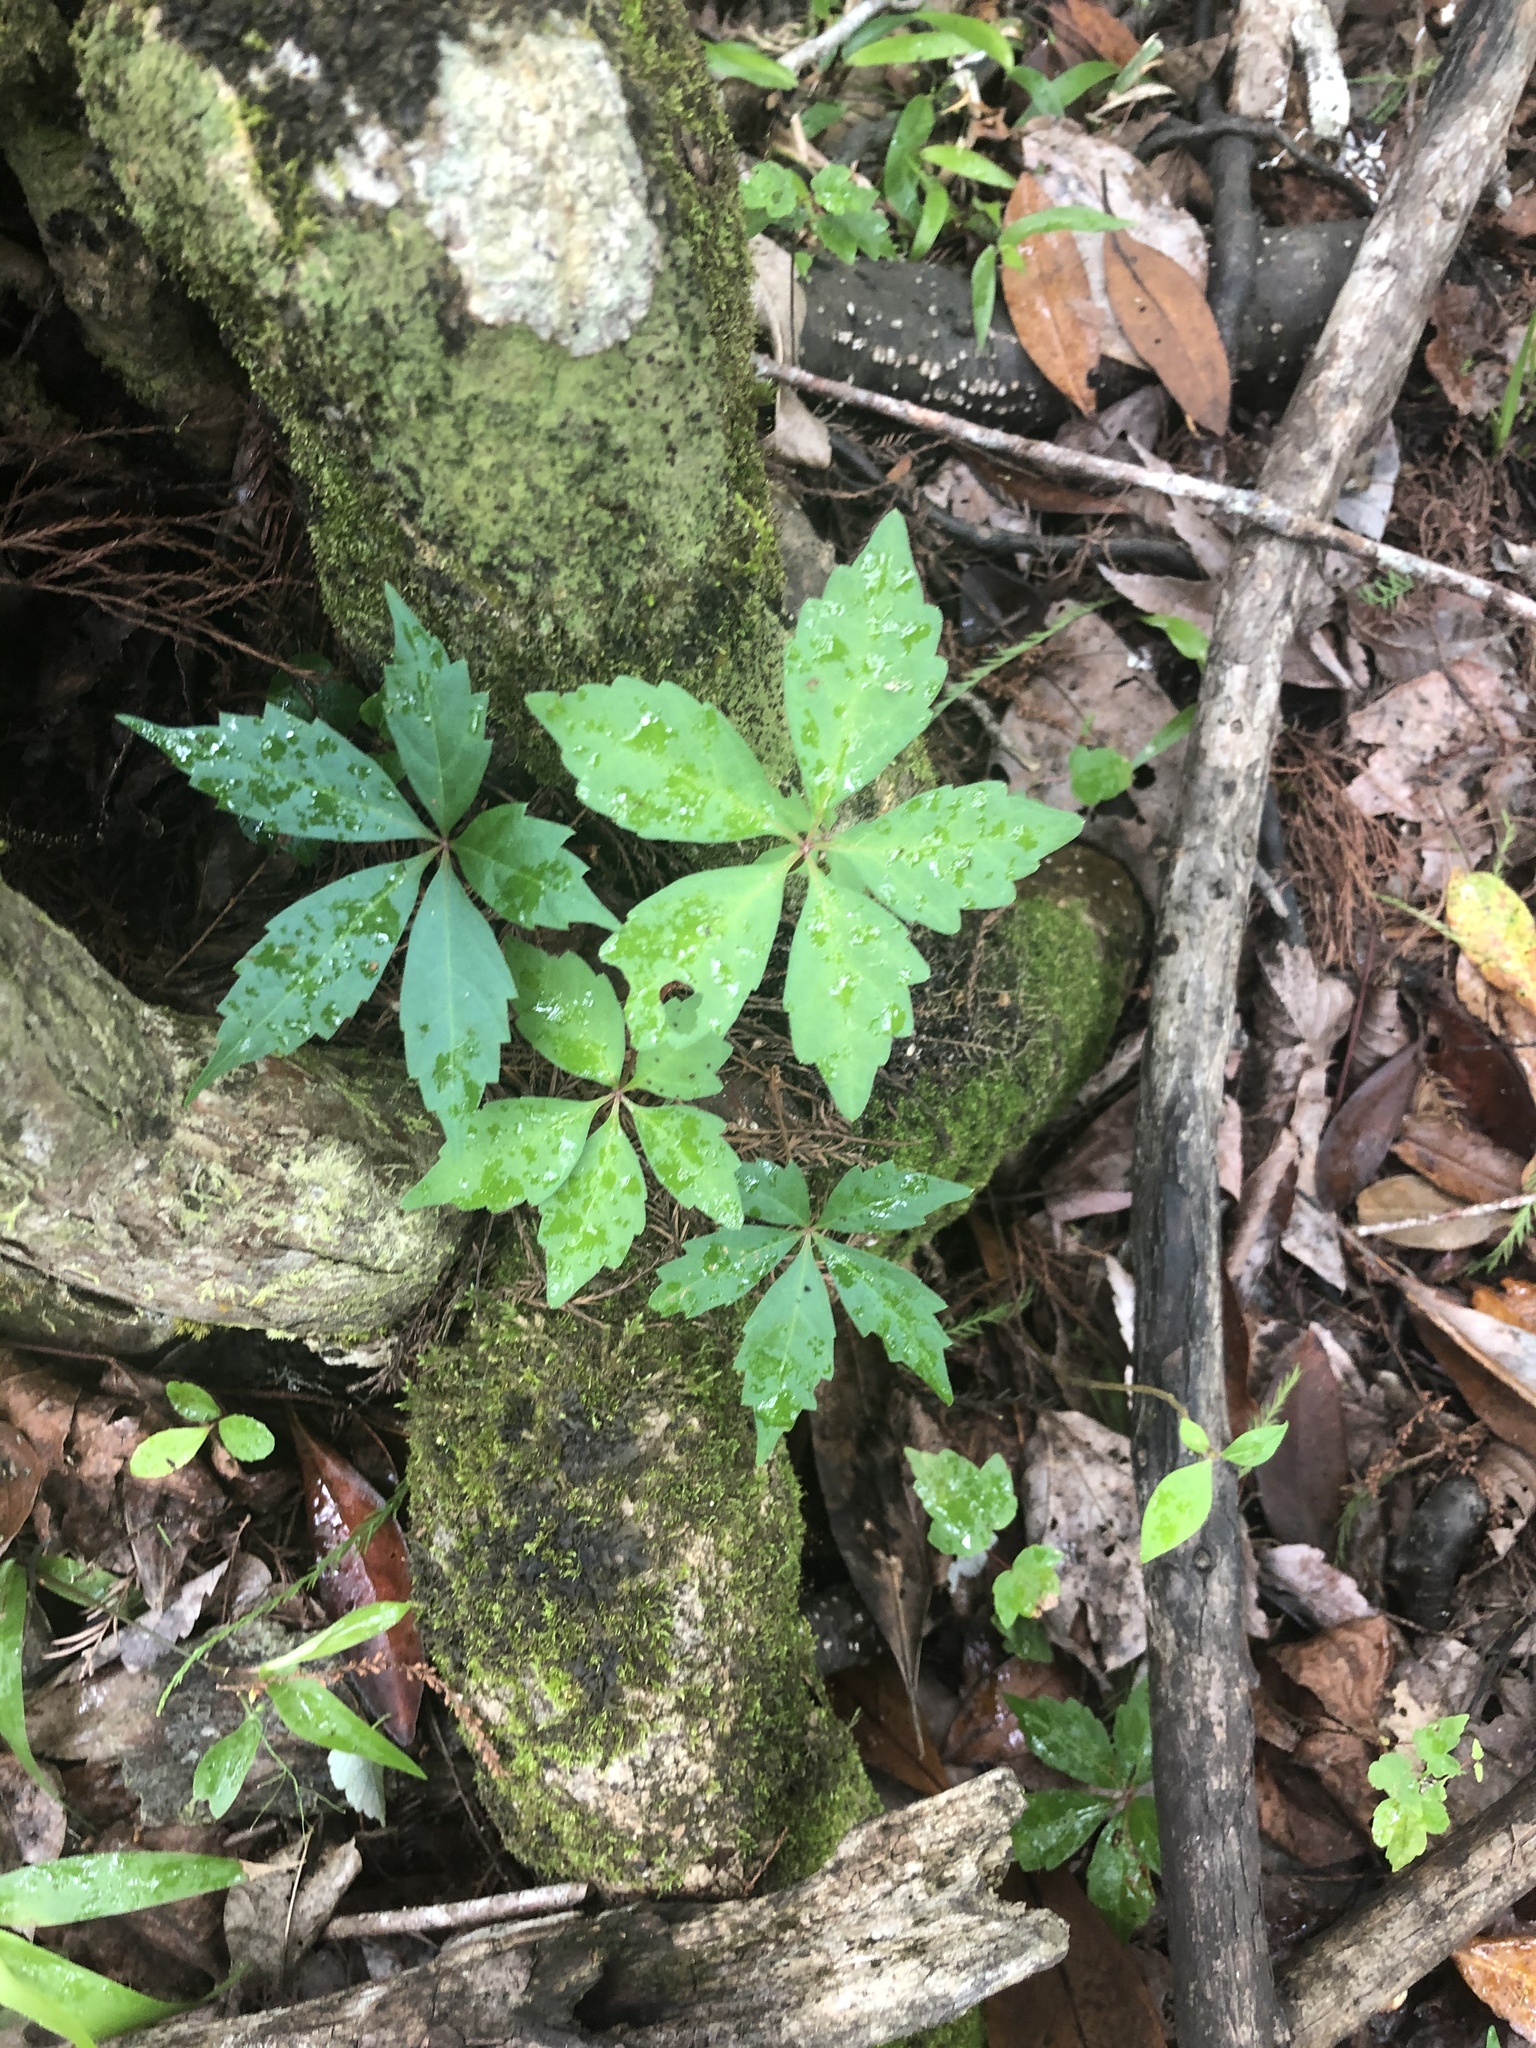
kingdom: Plantae
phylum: Tracheophyta
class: Magnoliopsida
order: Vitales
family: Vitaceae
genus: Parthenocissus
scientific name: Parthenocissus quinquefolia
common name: Virginia-creeper
